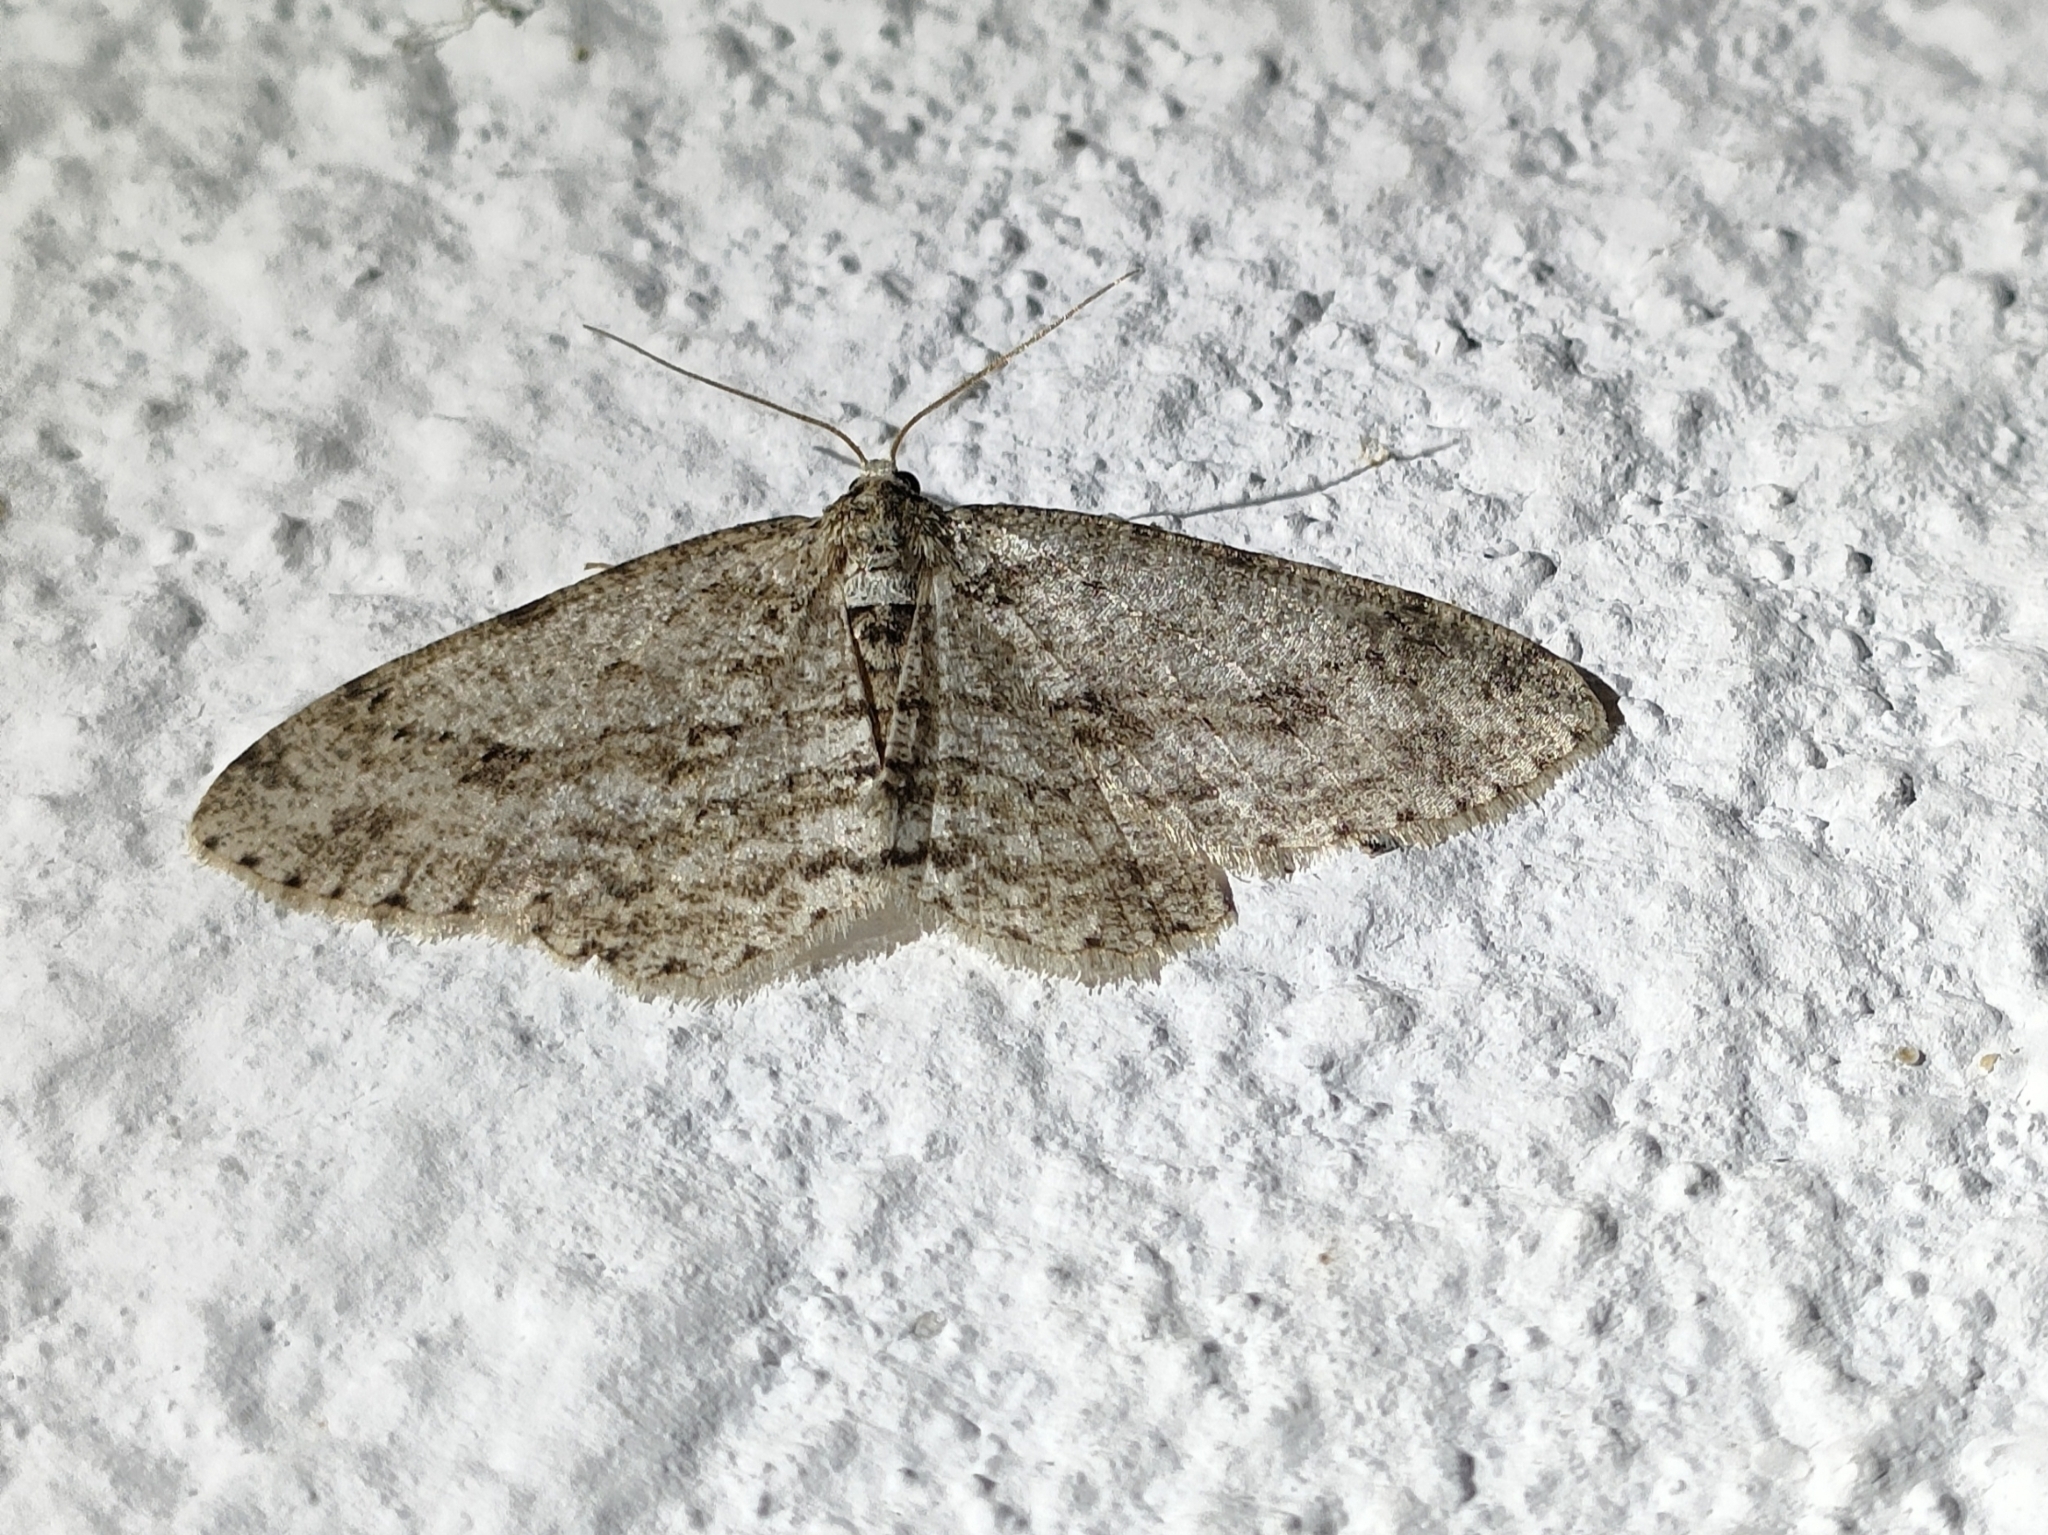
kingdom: Animalia
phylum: Arthropoda
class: Insecta
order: Lepidoptera
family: Geometridae
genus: Ectropis
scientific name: Ectropis crepuscularia
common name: Engrailed
